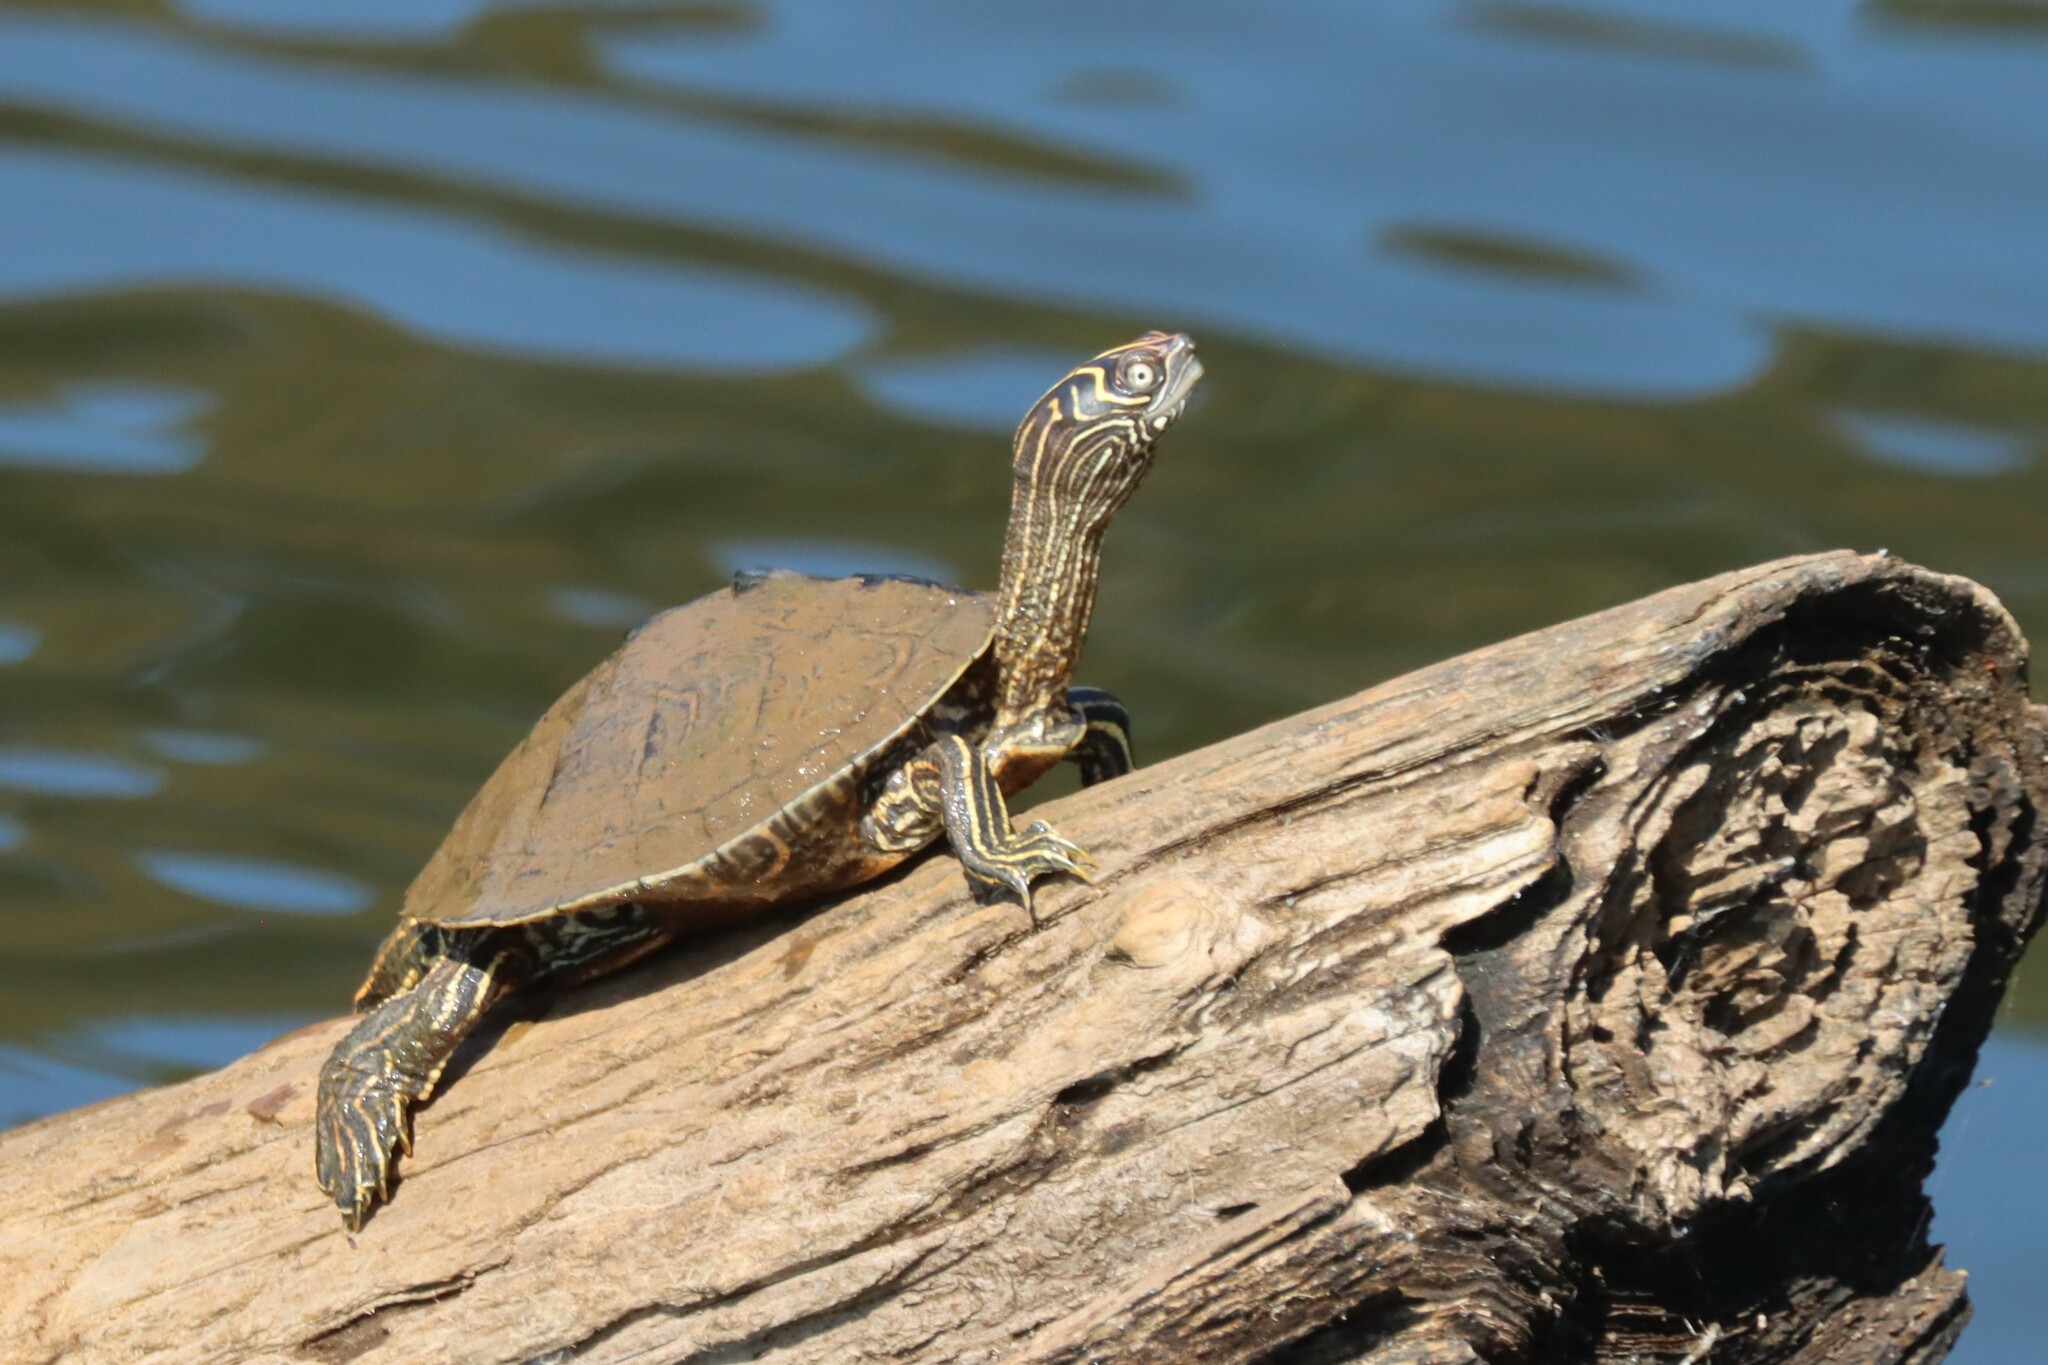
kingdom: Animalia
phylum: Chordata
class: Testudines
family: Emydidae
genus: Graptemys
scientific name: Graptemys pseudogeographica
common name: False map turtle
